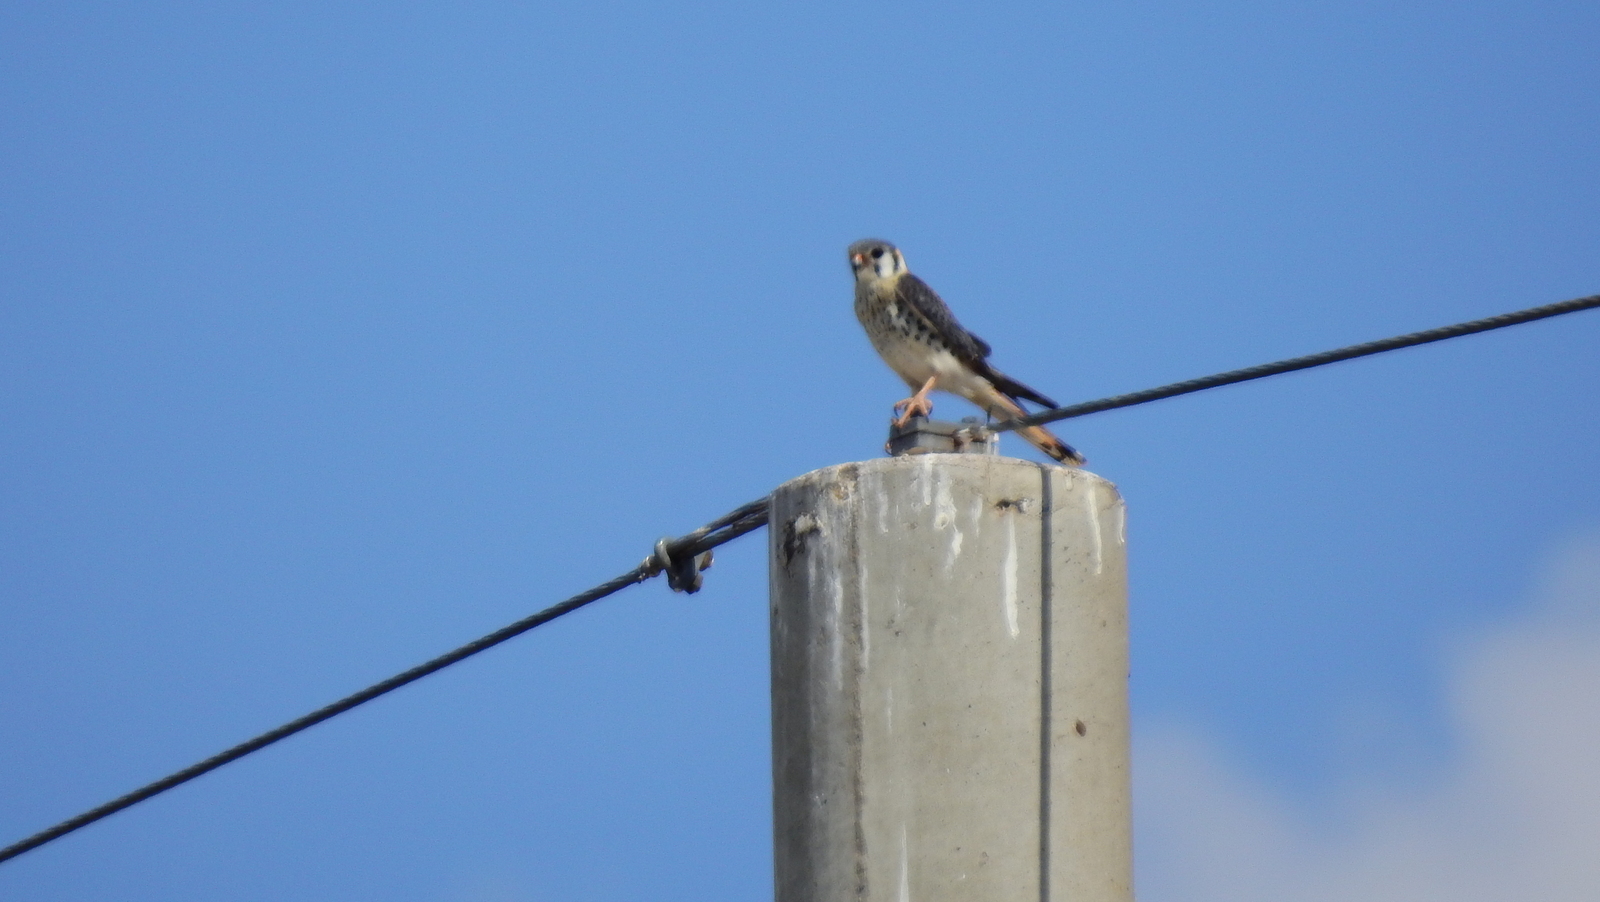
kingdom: Animalia
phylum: Chordata
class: Aves
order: Falconiformes
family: Falconidae
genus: Falco
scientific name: Falco sparverius
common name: American kestrel
